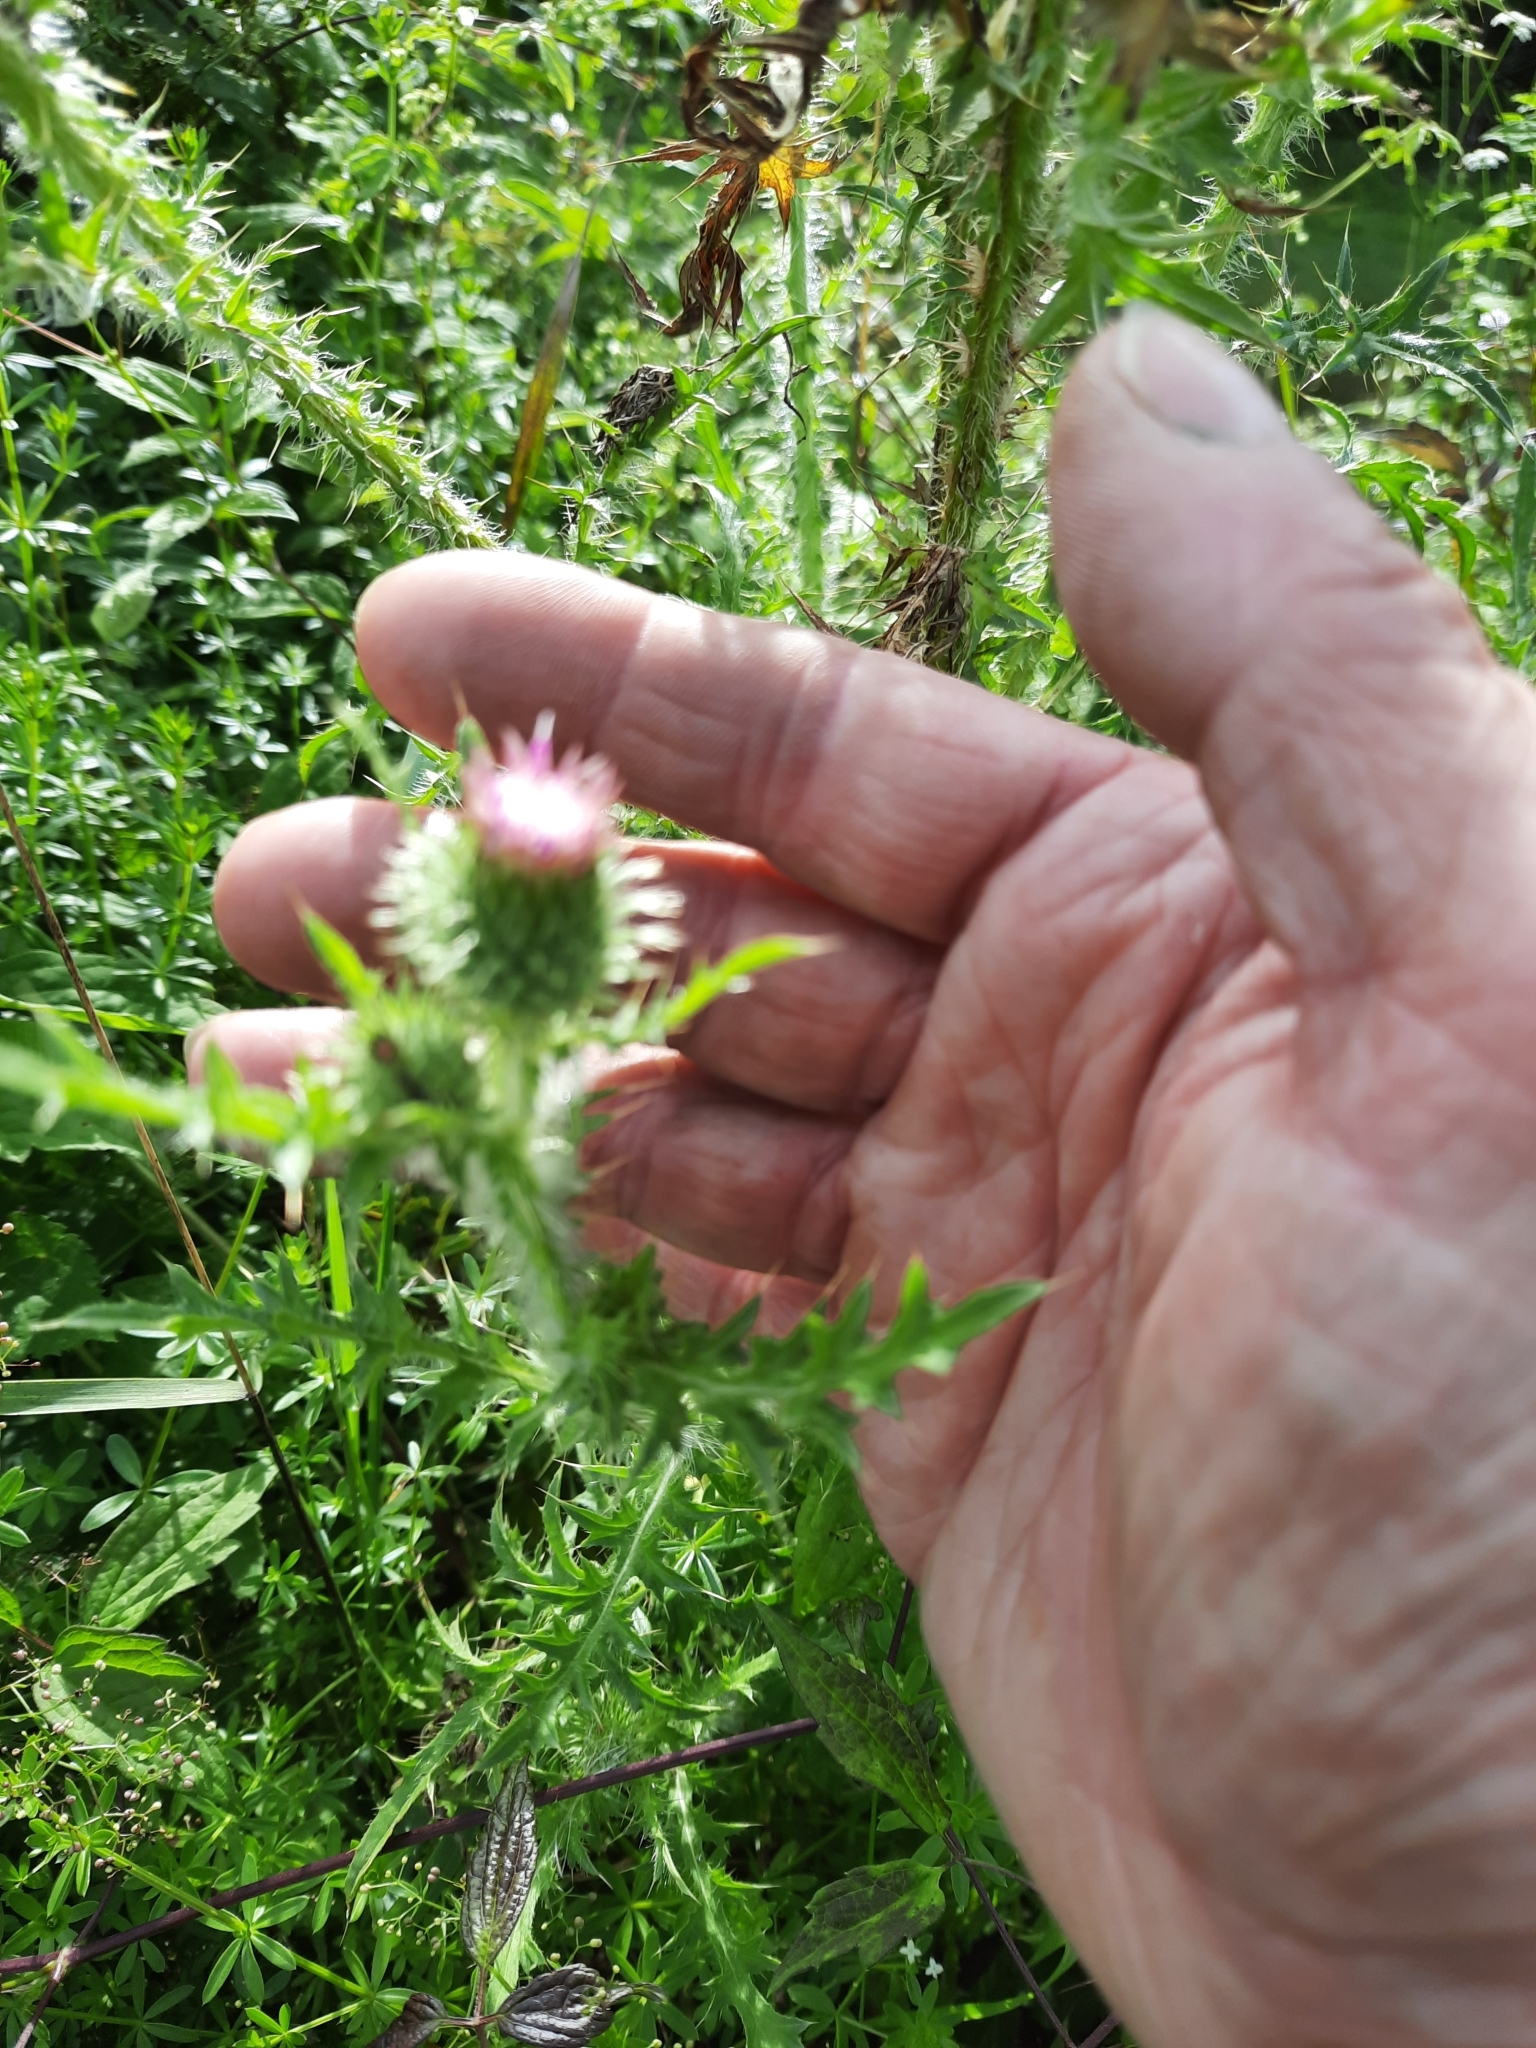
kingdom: Plantae
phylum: Tracheophyta
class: Magnoliopsida
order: Asterales
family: Asteraceae
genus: Carduus
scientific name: Carduus acanthoides
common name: Plumeless thistle
